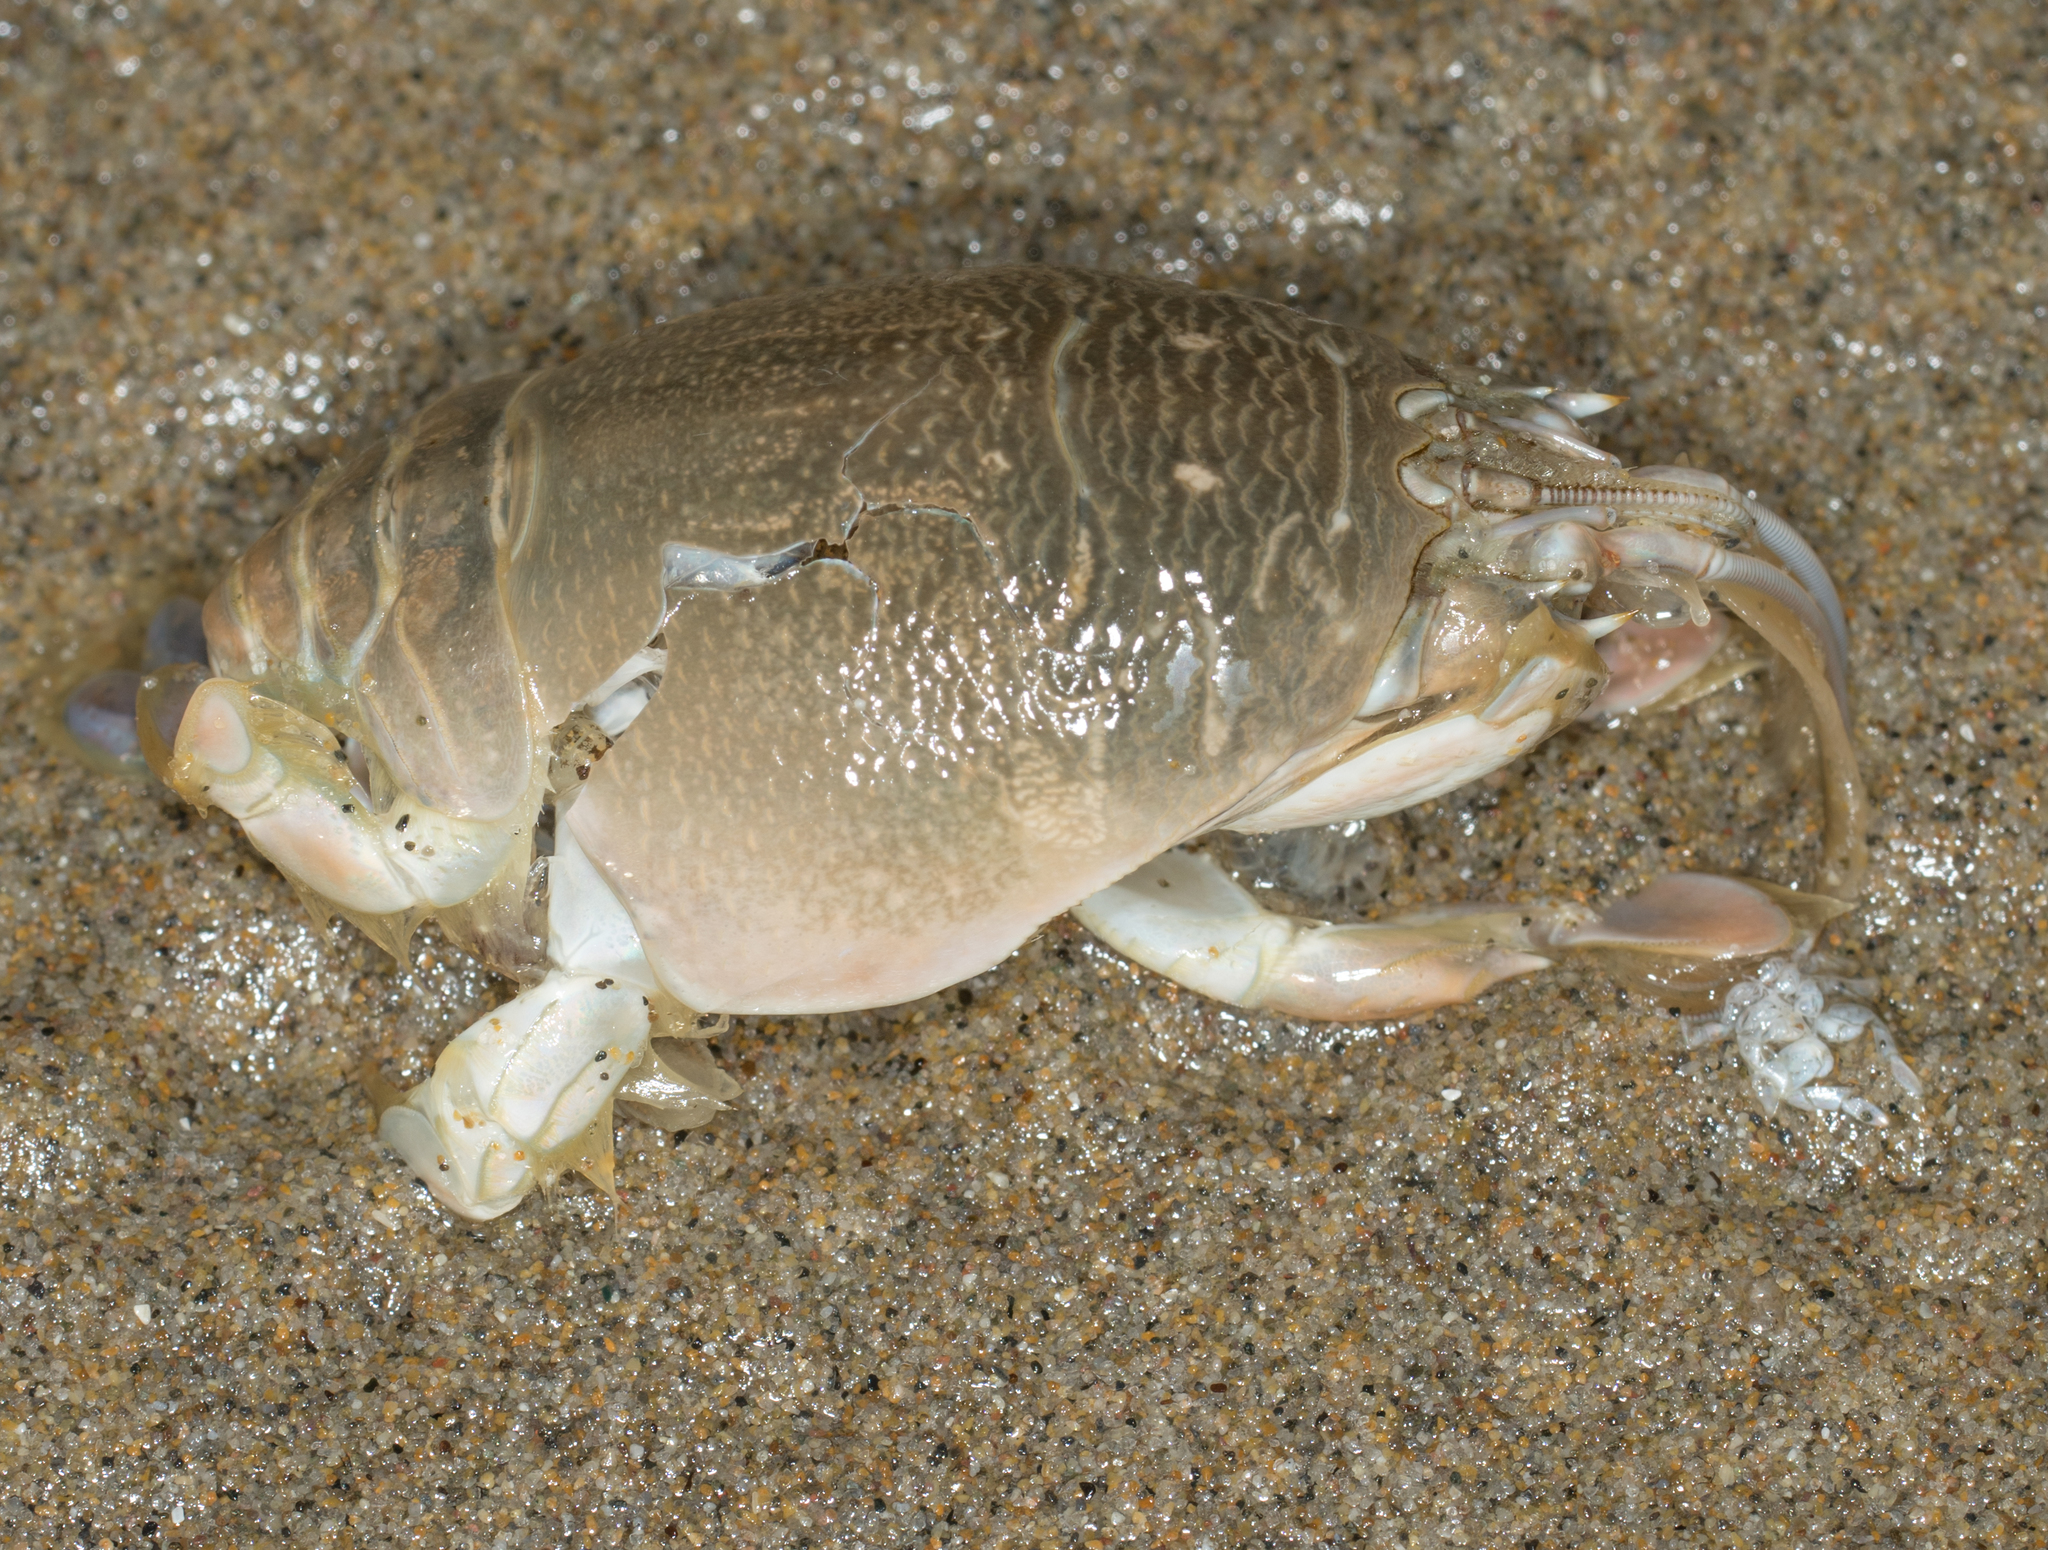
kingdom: Animalia
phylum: Arthropoda
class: Malacostraca
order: Decapoda
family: Hippidae
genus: Emerita
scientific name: Emerita analoga
